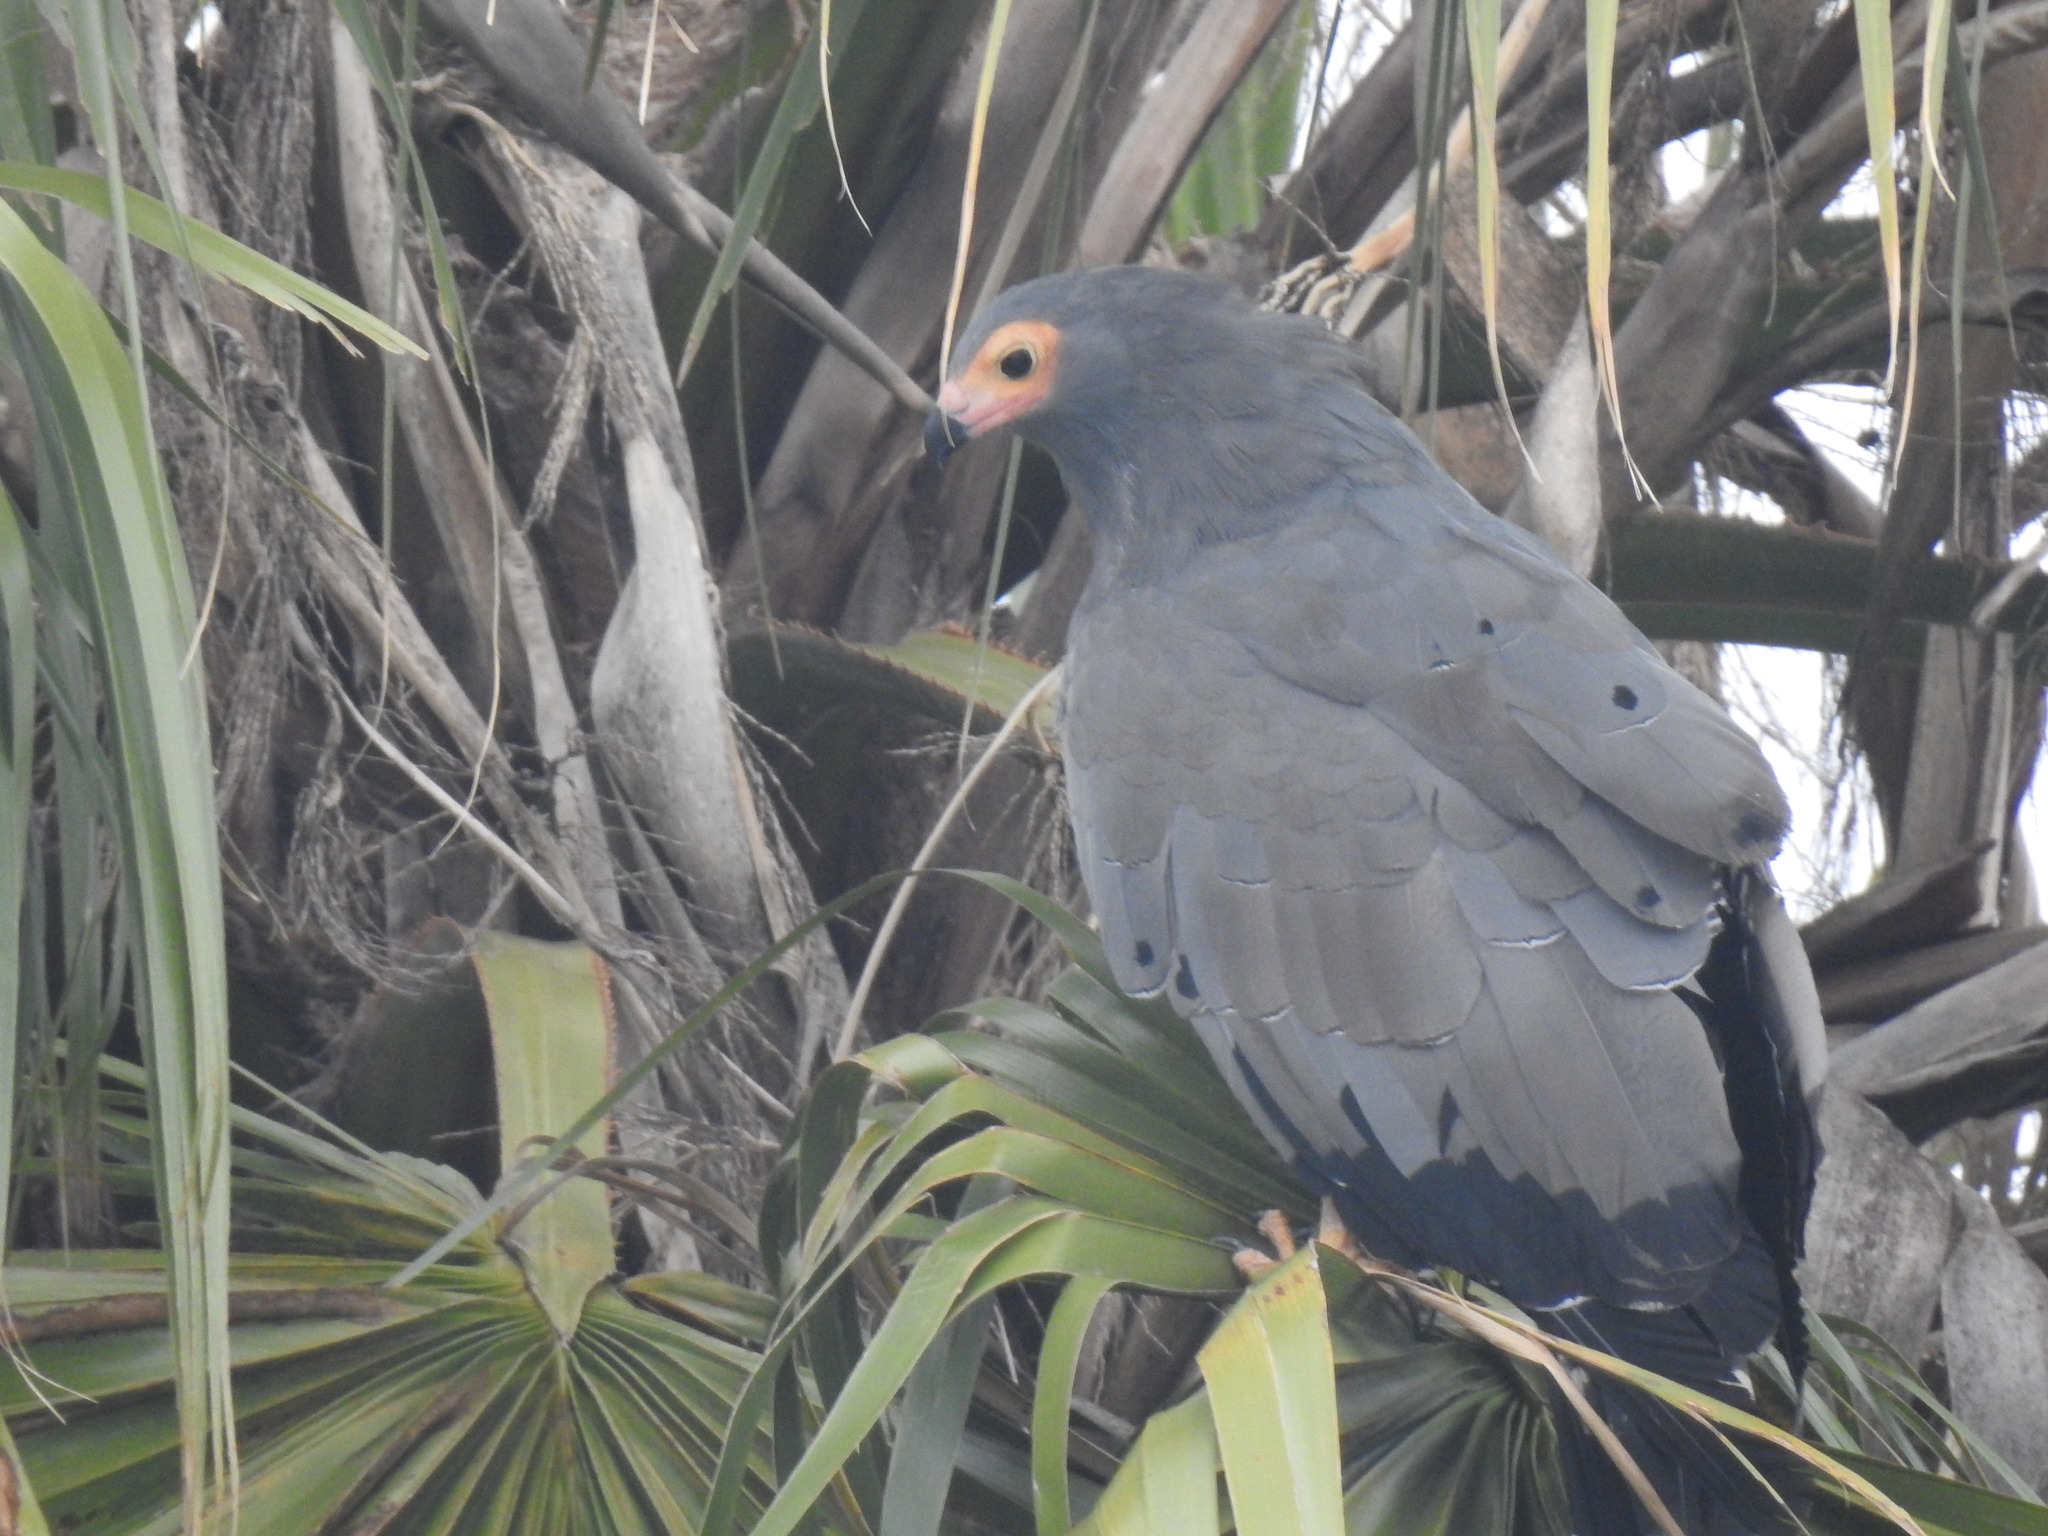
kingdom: Animalia
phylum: Chordata
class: Aves
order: Accipitriformes
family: Accipitridae
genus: Polyboroides
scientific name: Polyboroides typus
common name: African harrier-hawk
